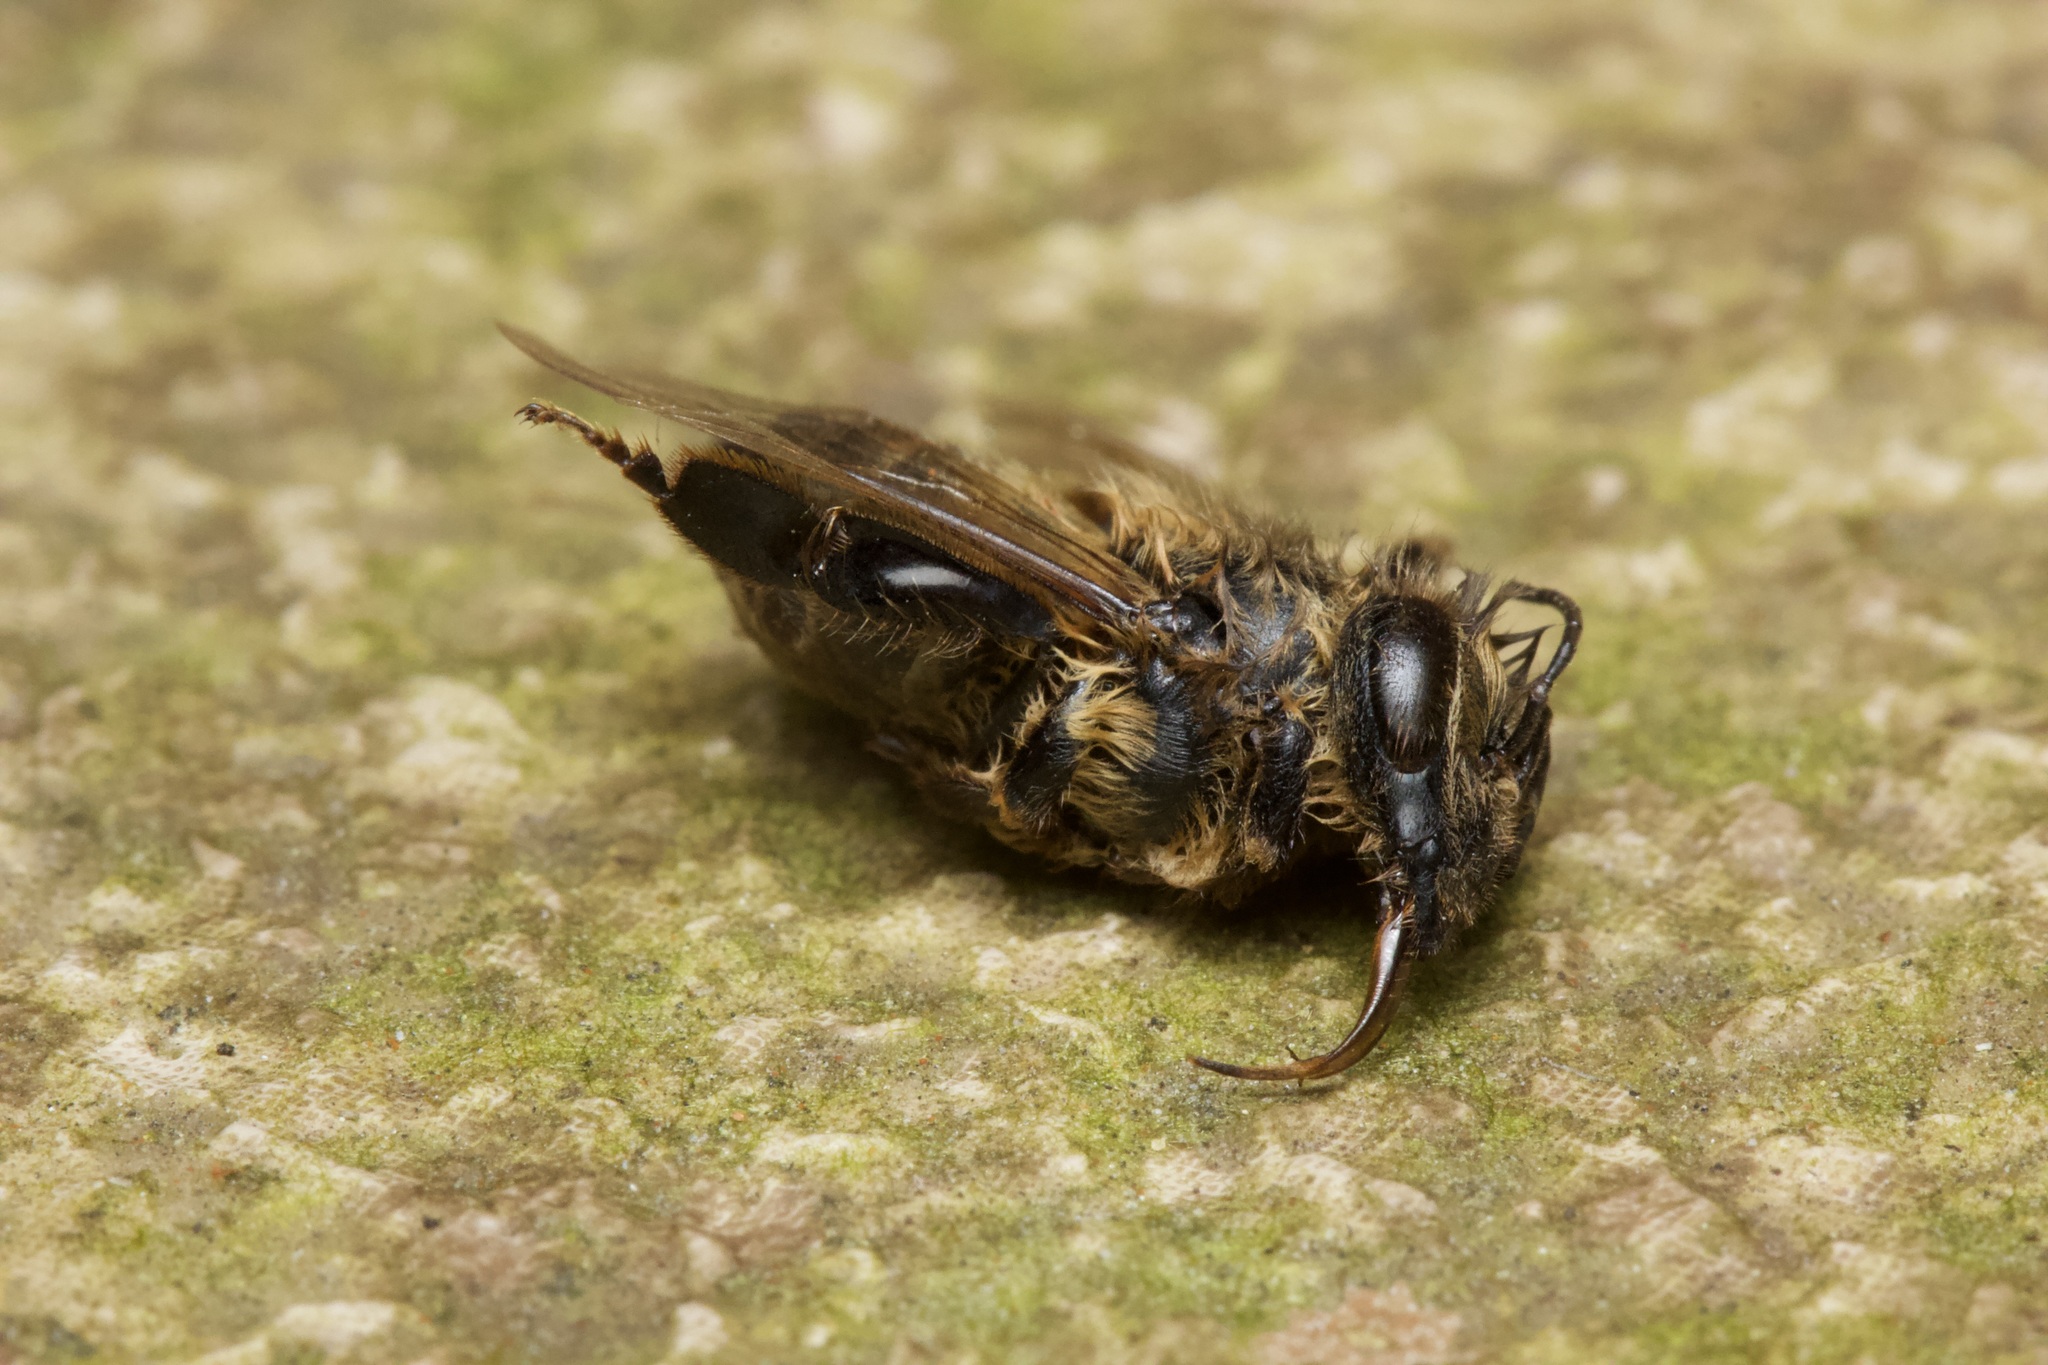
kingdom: Animalia
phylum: Arthropoda
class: Insecta
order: Hymenoptera
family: Apidae
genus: Apis
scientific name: Apis mellifera
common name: Honey bee
